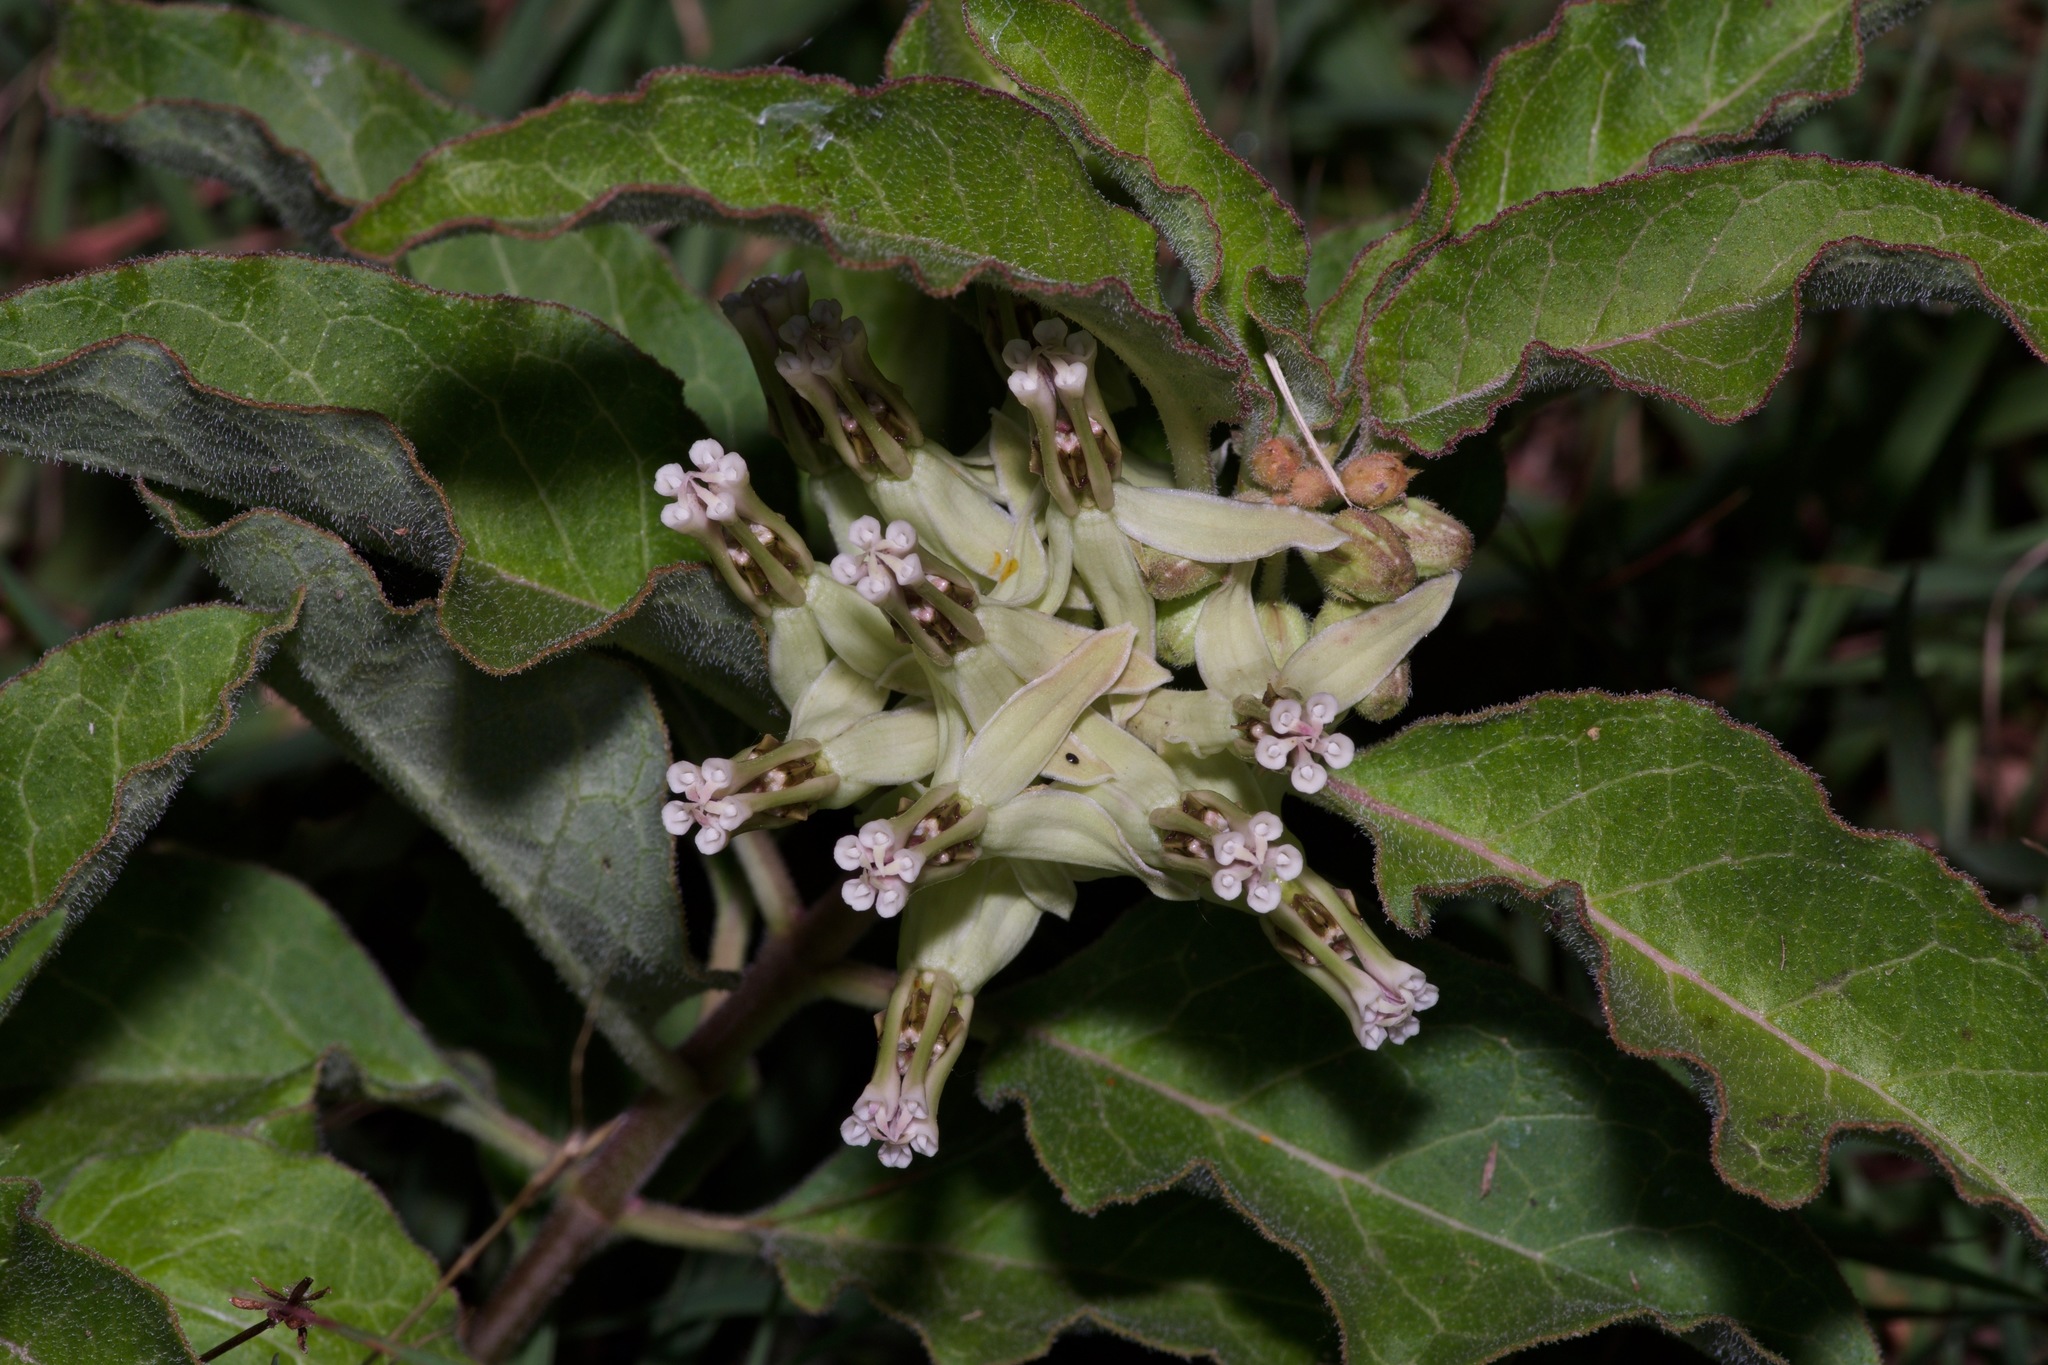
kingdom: Plantae
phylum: Tracheophyta
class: Magnoliopsida
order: Gentianales
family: Apocynaceae
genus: Asclepias
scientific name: Asclepias oenotheroides
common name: Zizotes milkweed
